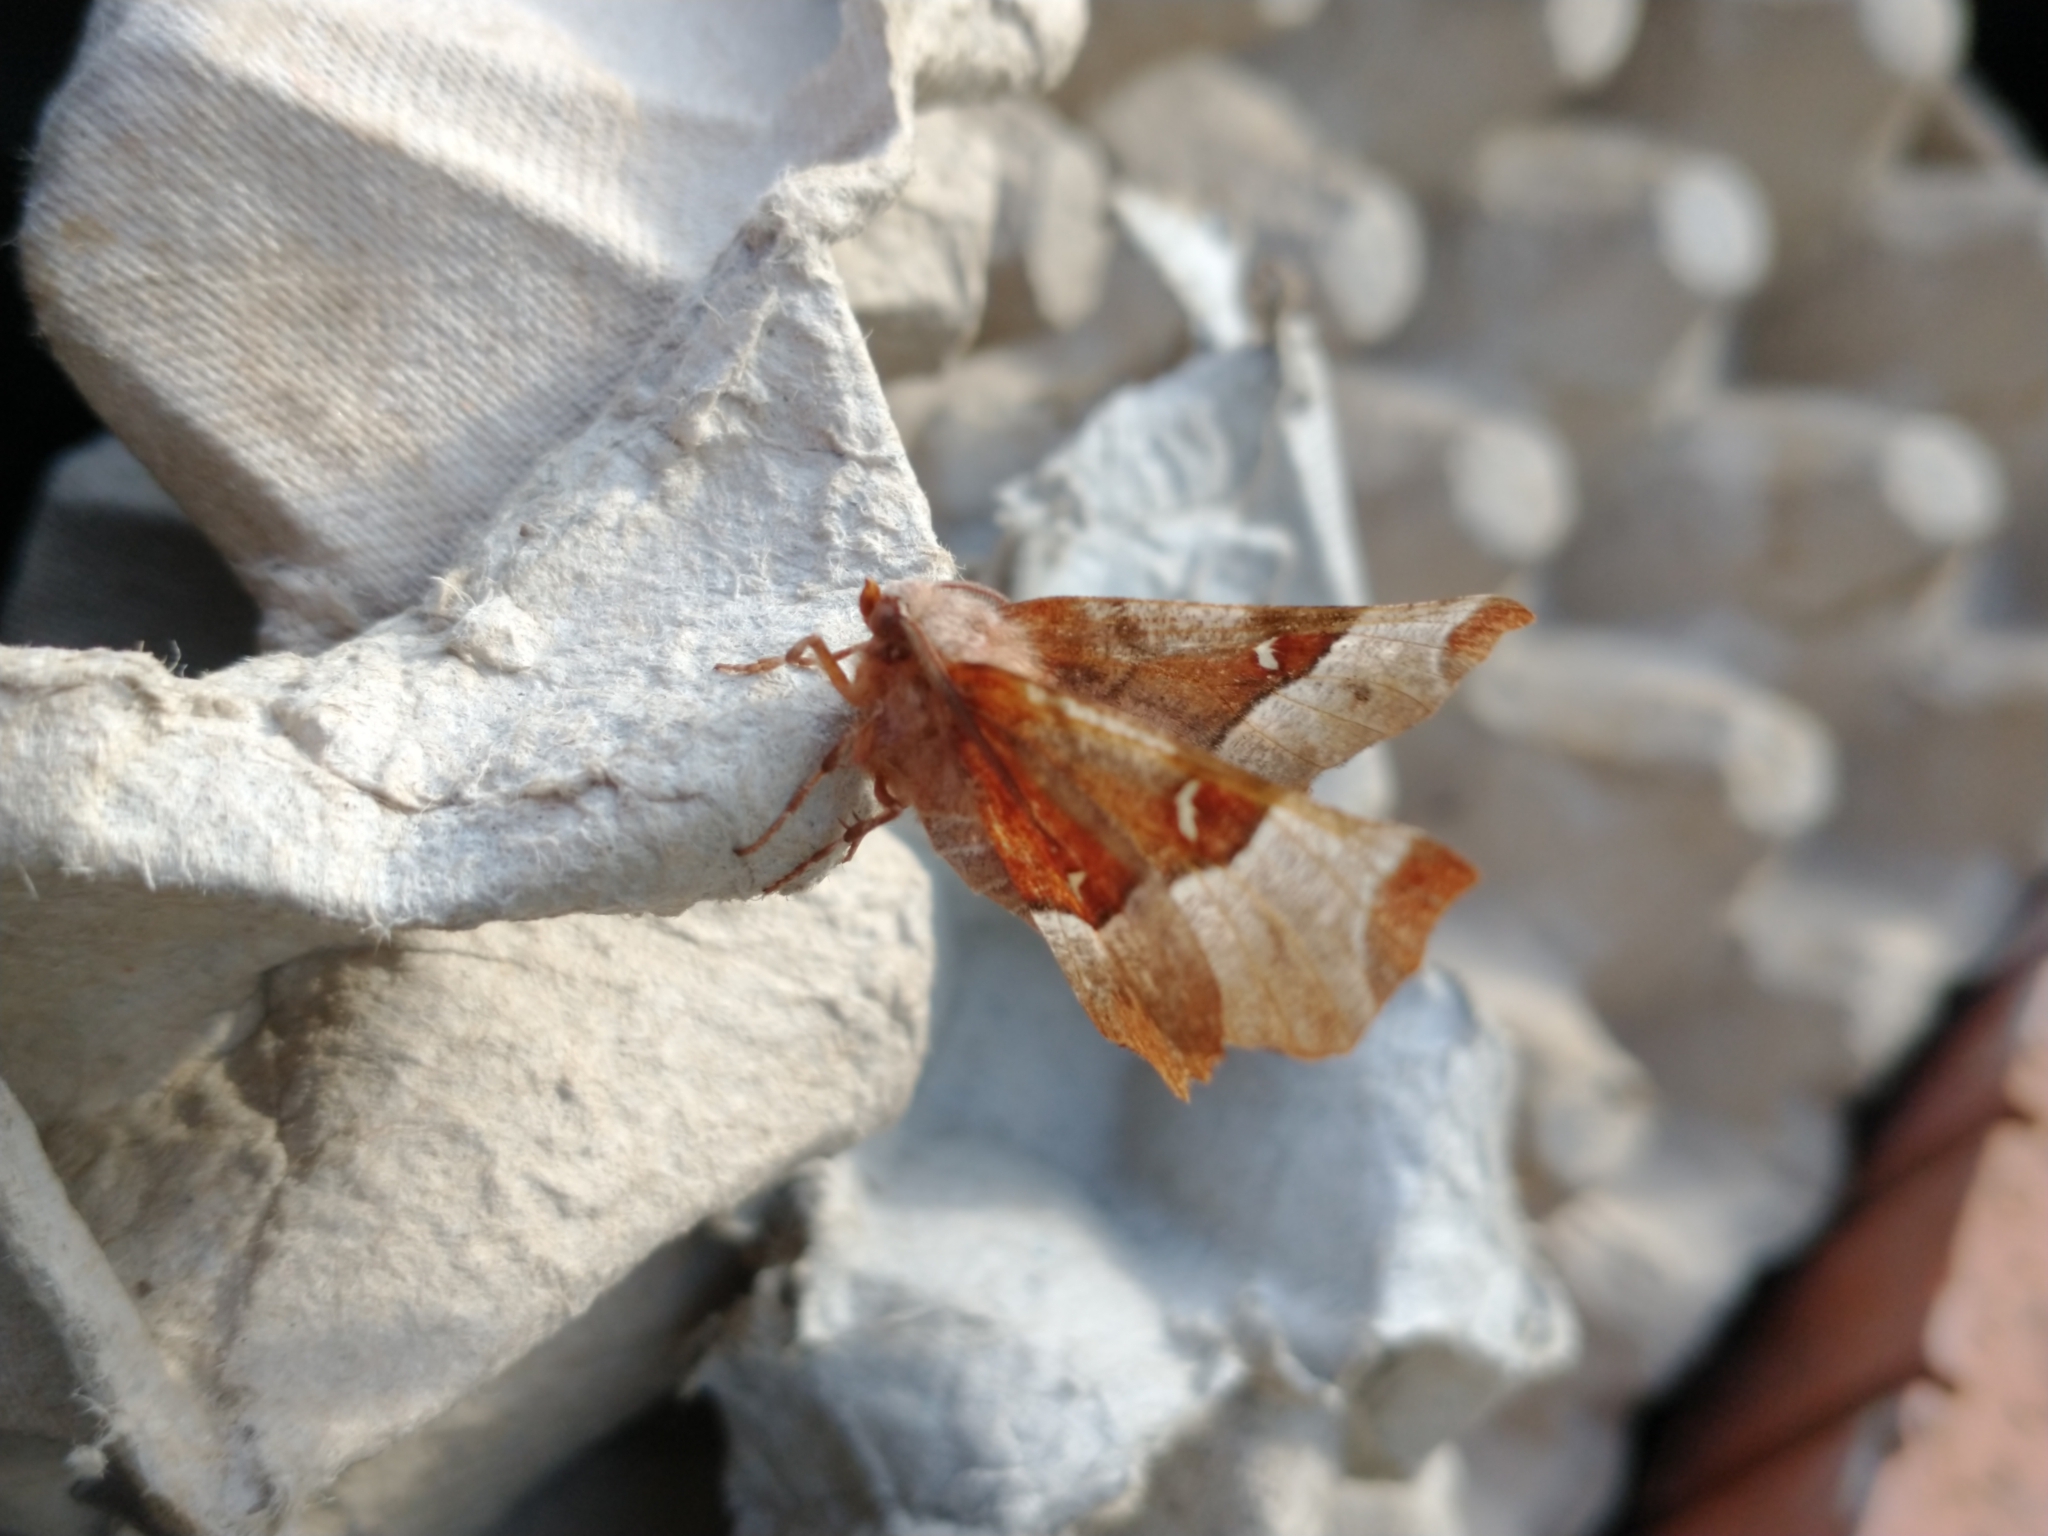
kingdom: Animalia
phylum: Arthropoda
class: Insecta
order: Lepidoptera
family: Geometridae
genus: Selenia
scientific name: Selenia tetralunaria
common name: Purple thorn
